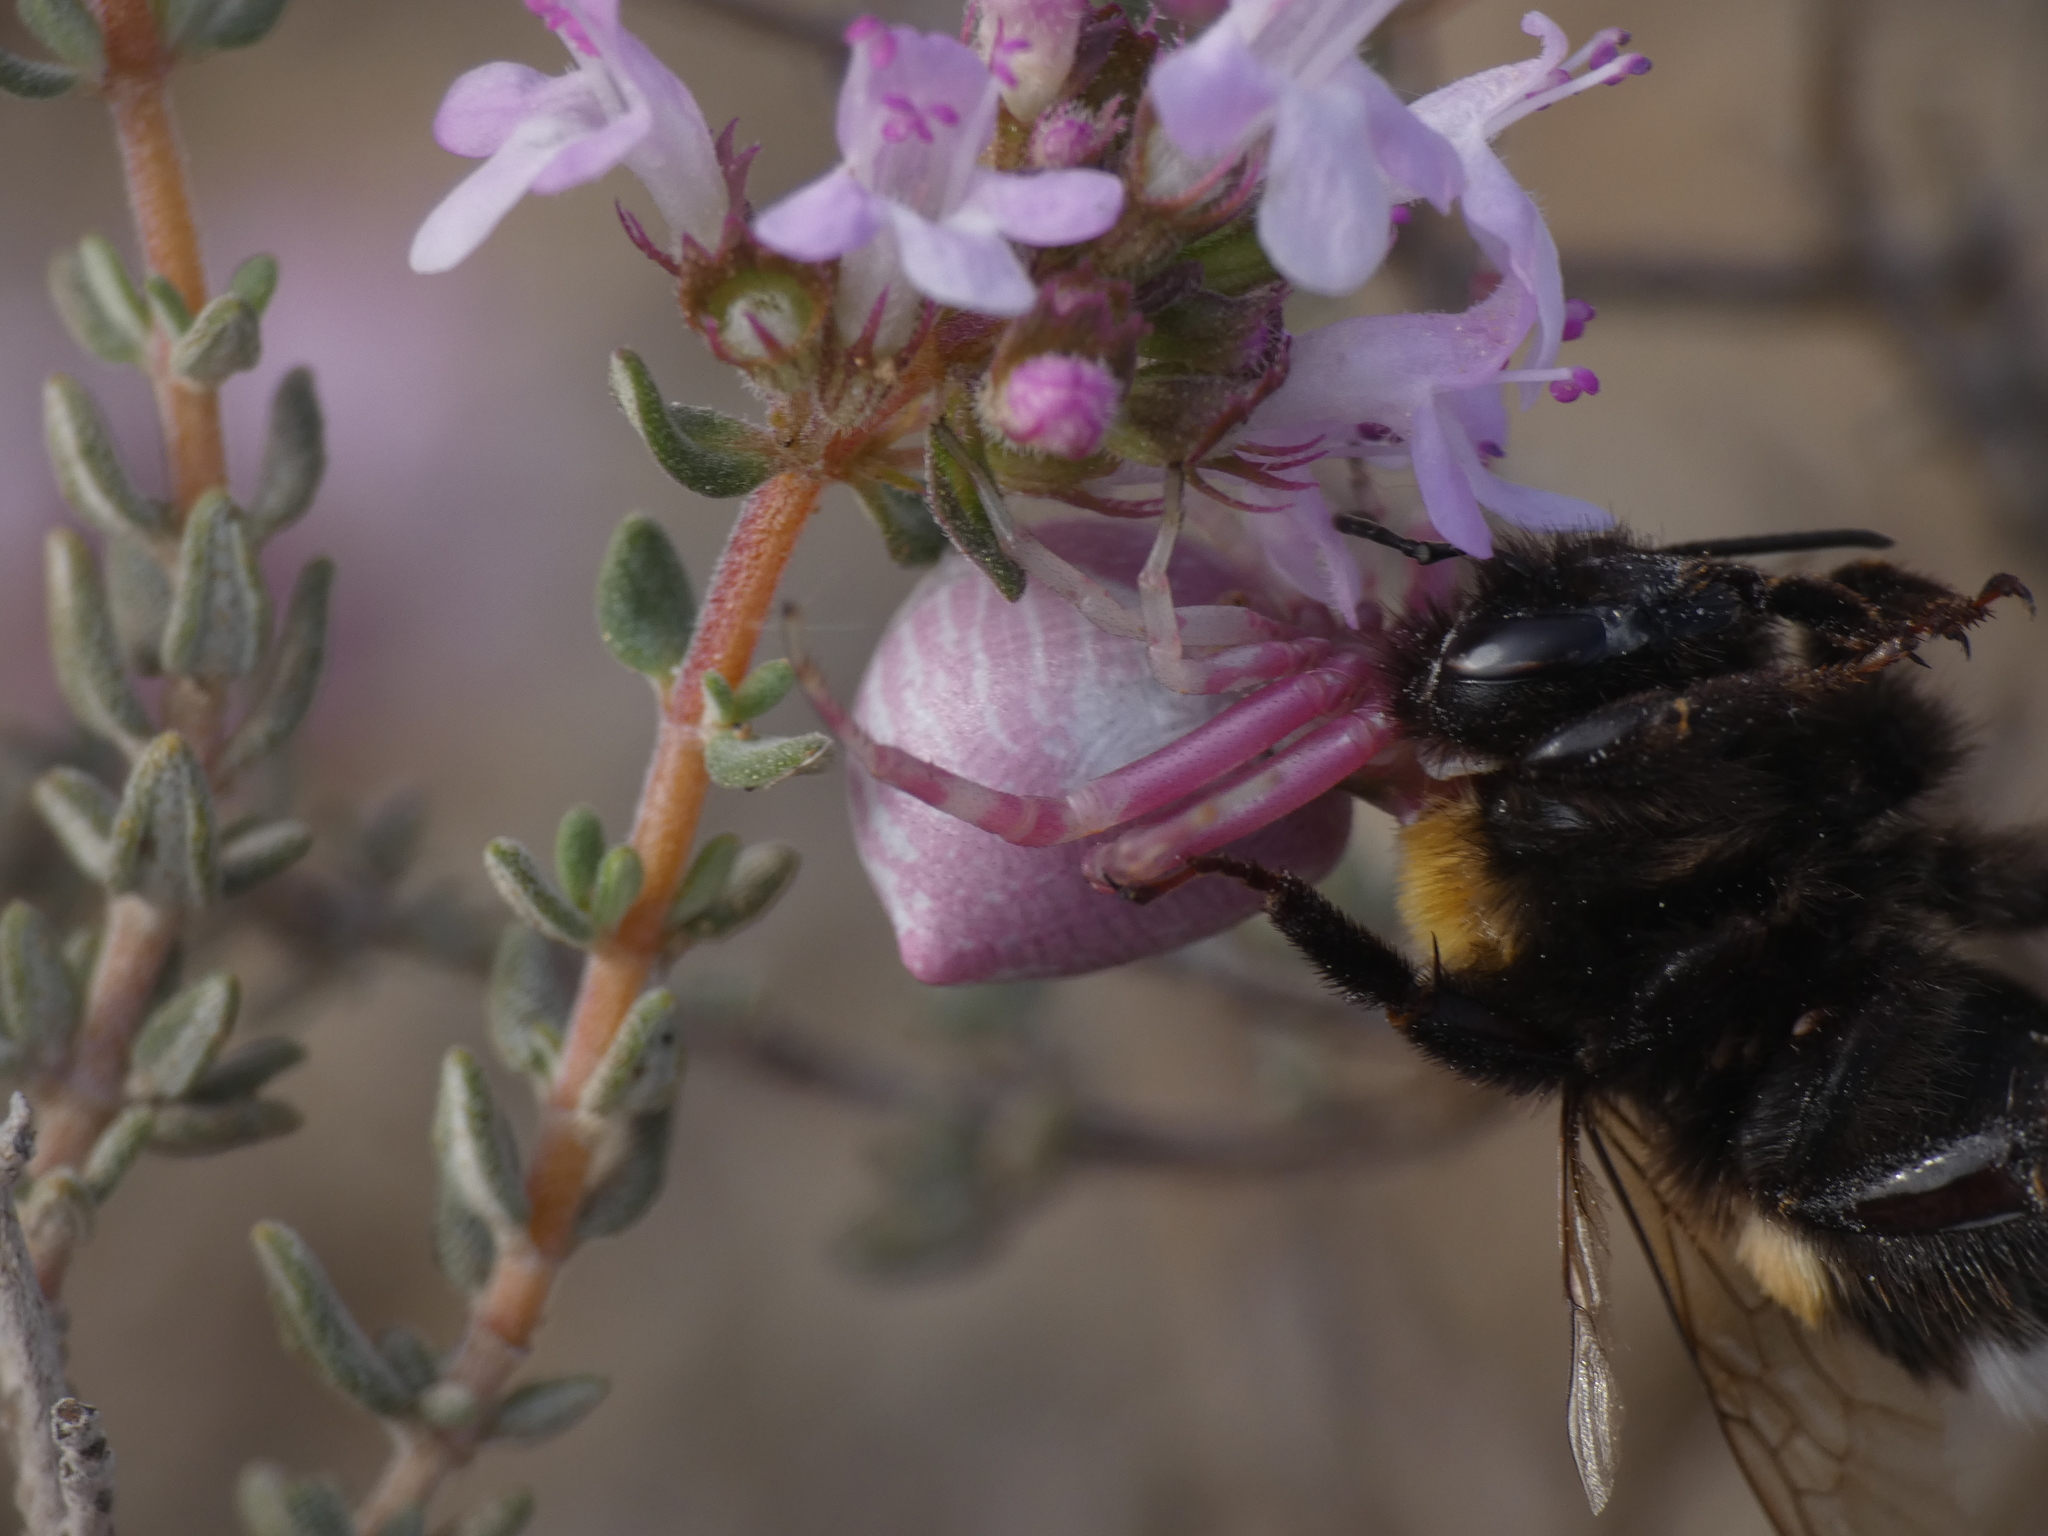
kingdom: Animalia
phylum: Arthropoda
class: Arachnida
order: Araneae
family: Thomisidae
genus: Thomisus
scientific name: Thomisus onustus
